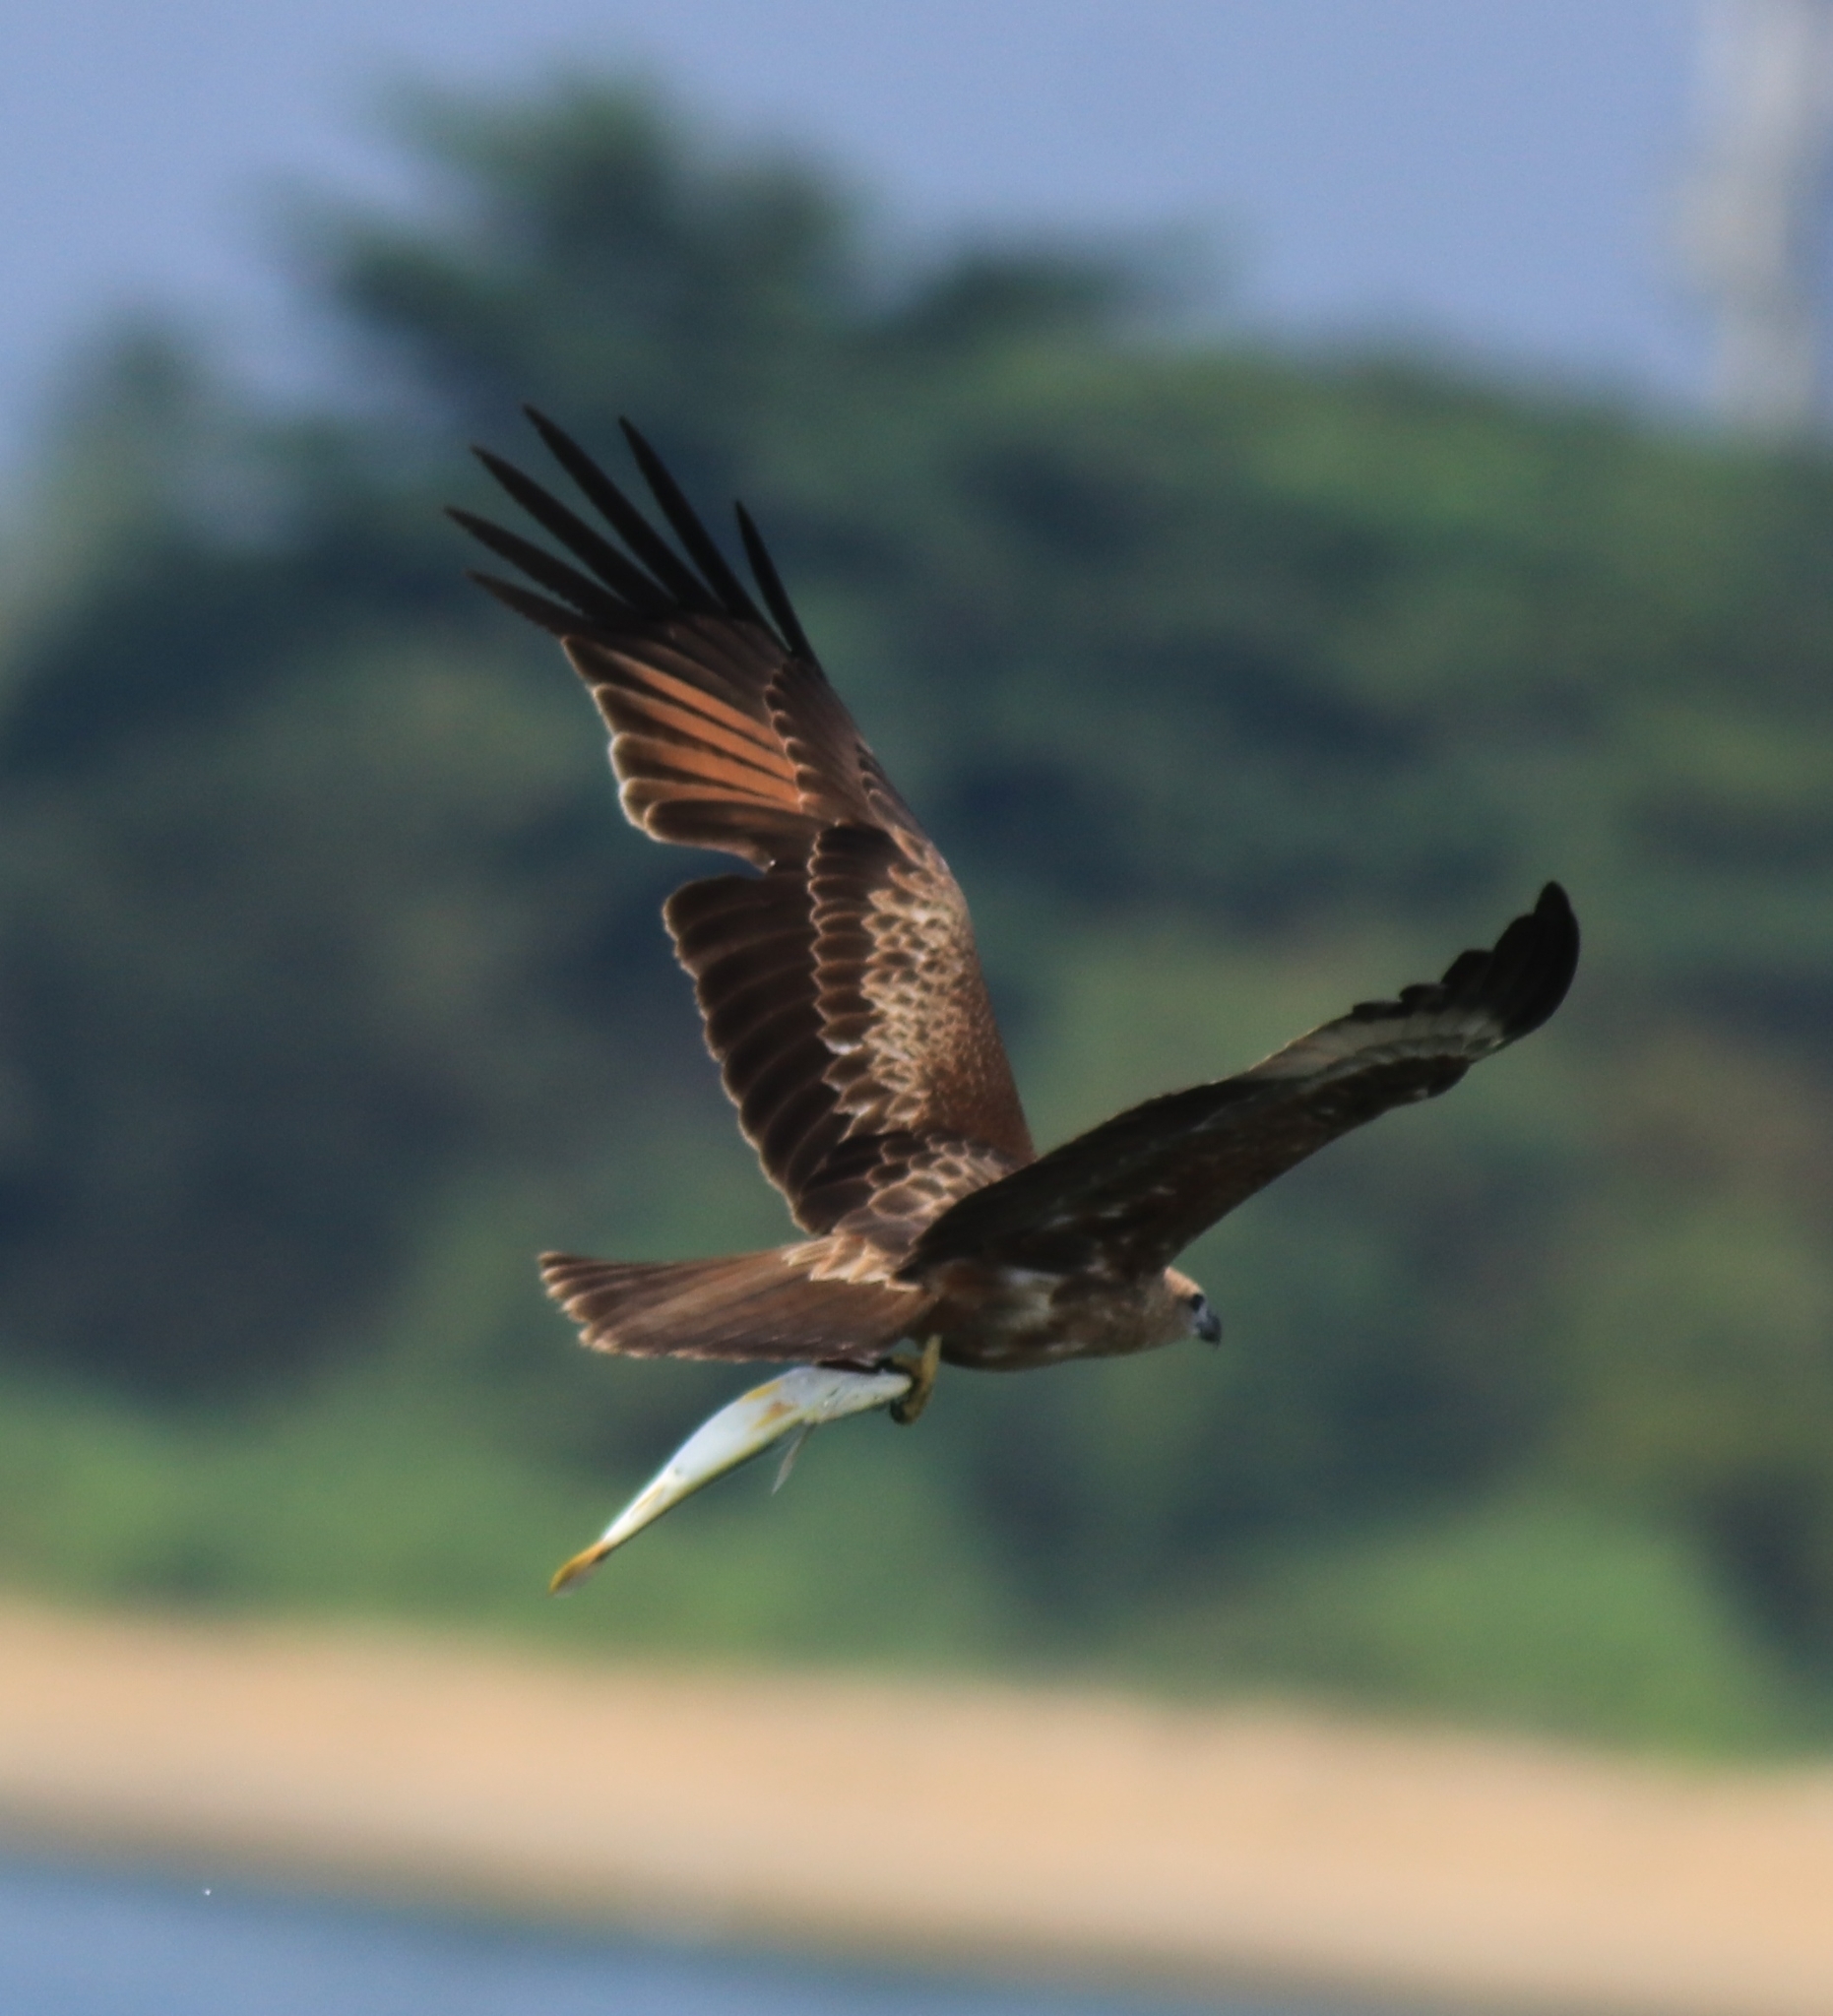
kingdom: Animalia
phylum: Chordata
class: Aves
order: Accipitriformes
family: Accipitridae
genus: Haliastur
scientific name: Haliastur indus
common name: Brahminy kite
